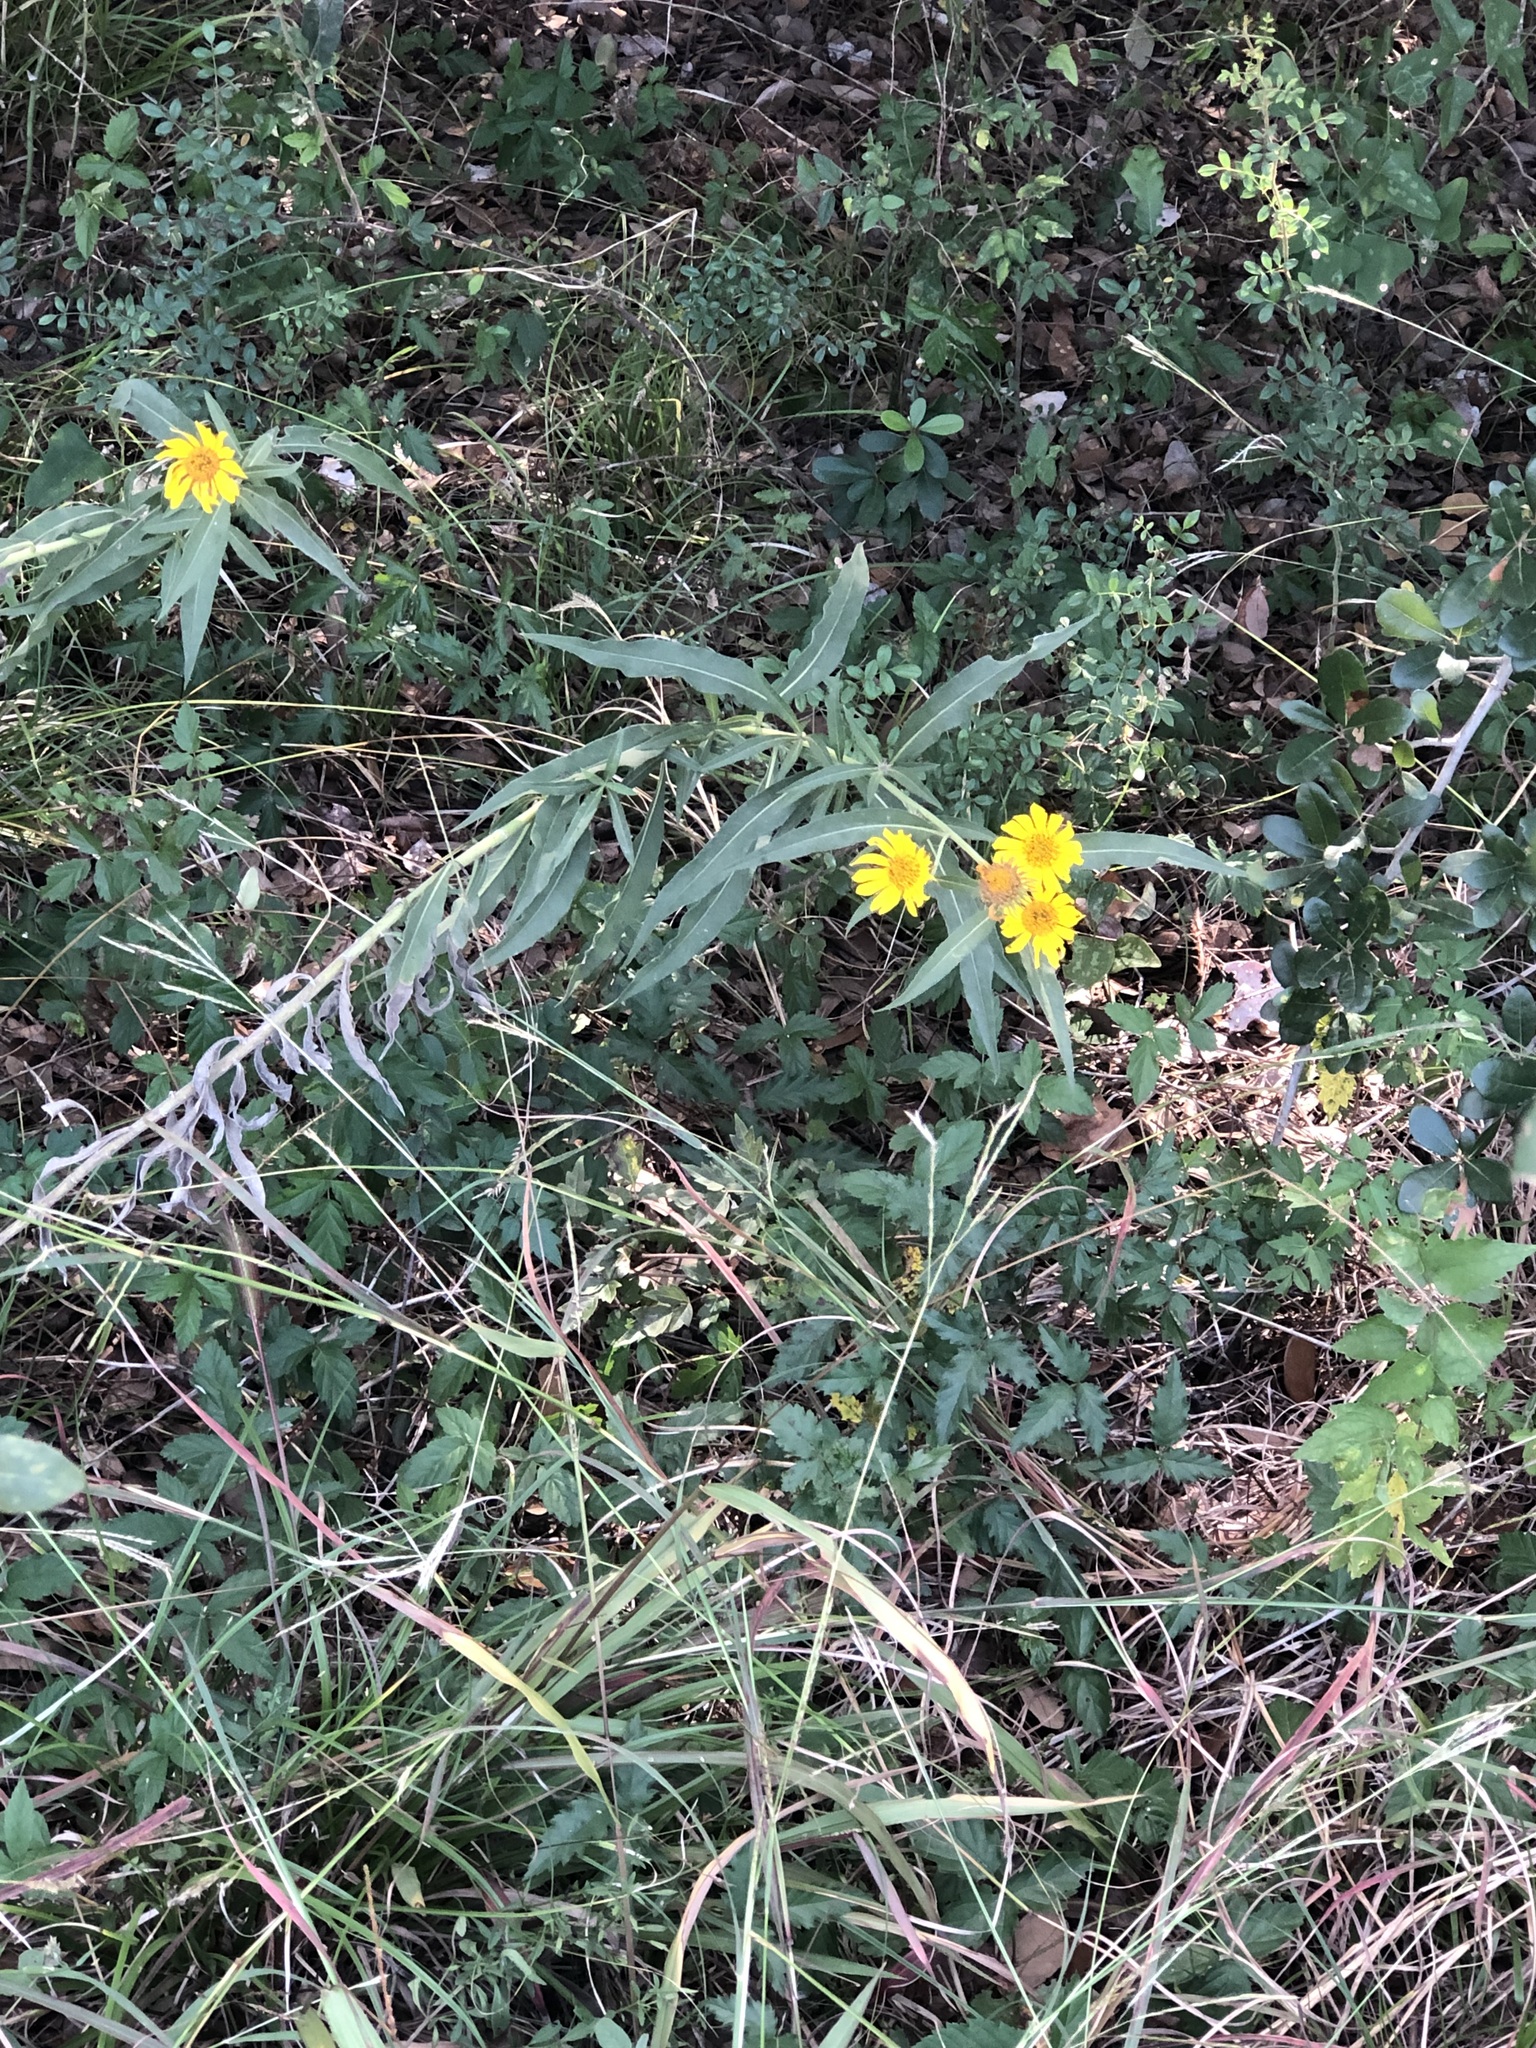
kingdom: Plantae
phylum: Tracheophyta
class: Magnoliopsida
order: Asterales
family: Asteraceae
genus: Helianthus
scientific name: Helianthus maximiliani
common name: Maximilian's sunflower
